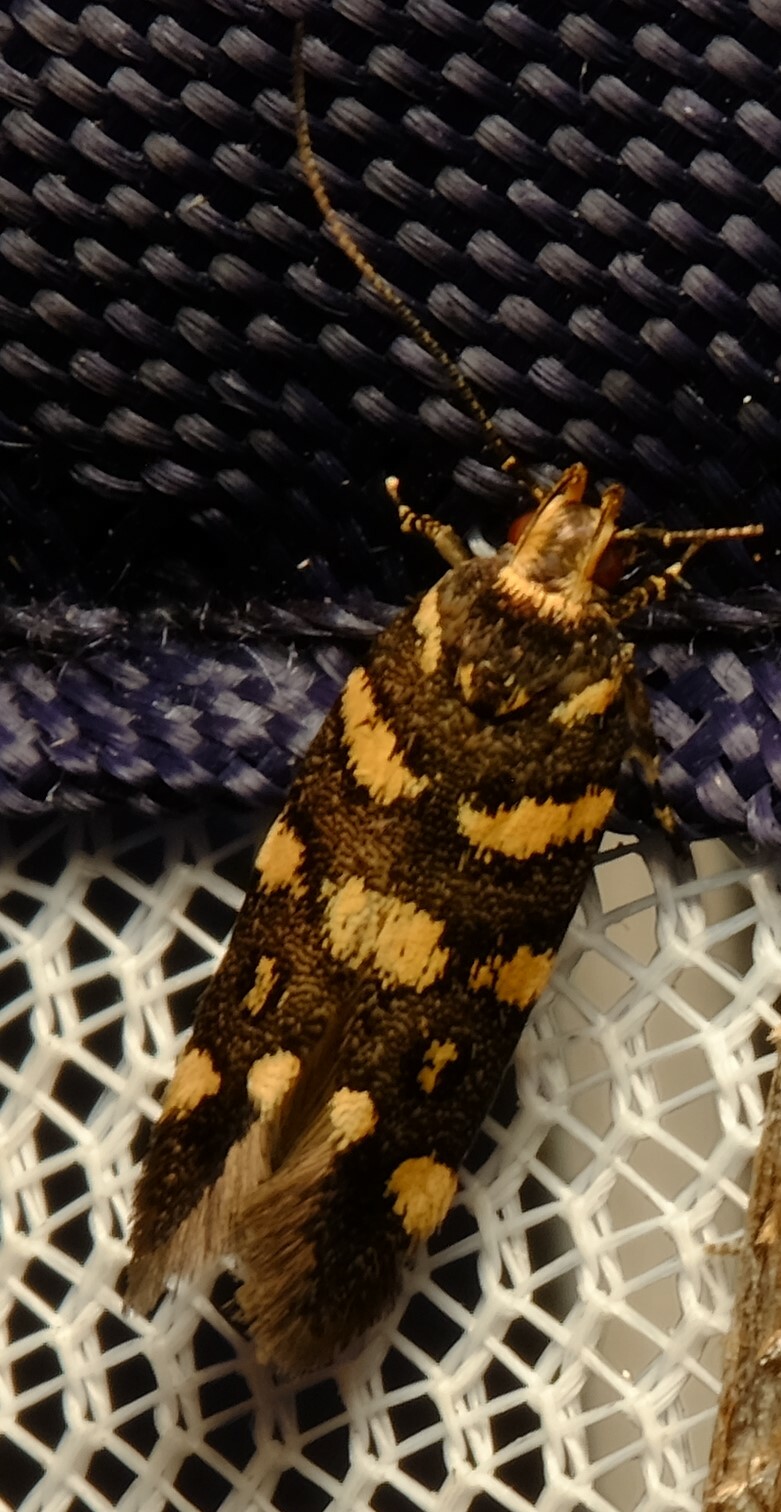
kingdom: Animalia
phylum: Arthropoda
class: Insecta
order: Lepidoptera
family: Cosmopterigidae
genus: Macrobathra
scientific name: Macrobathra myriophthalma
